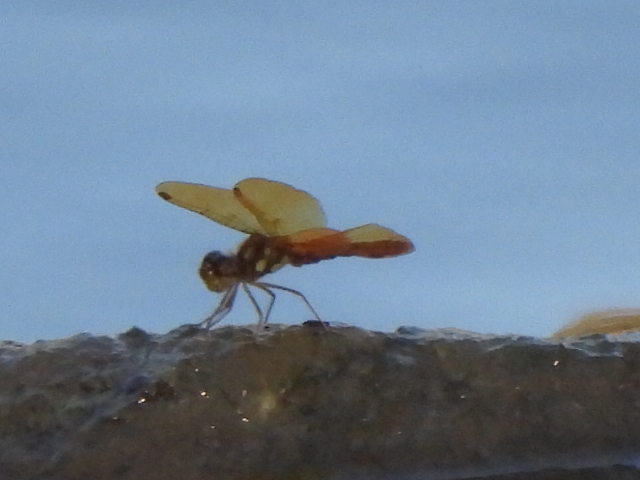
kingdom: Animalia
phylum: Arthropoda
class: Insecta
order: Odonata
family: Libellulidae
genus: Perithemis
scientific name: Perithemis tenera
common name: Eastern amberwing
